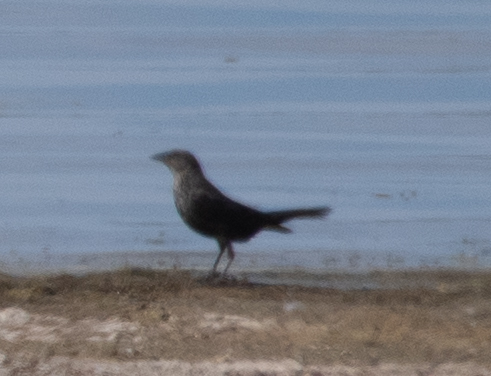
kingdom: Animalia
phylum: Chordata
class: Aves
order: Passeriformes
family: Icteridae
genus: Molothrus
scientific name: Molothrus ater
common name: Brown-headed cowbird
